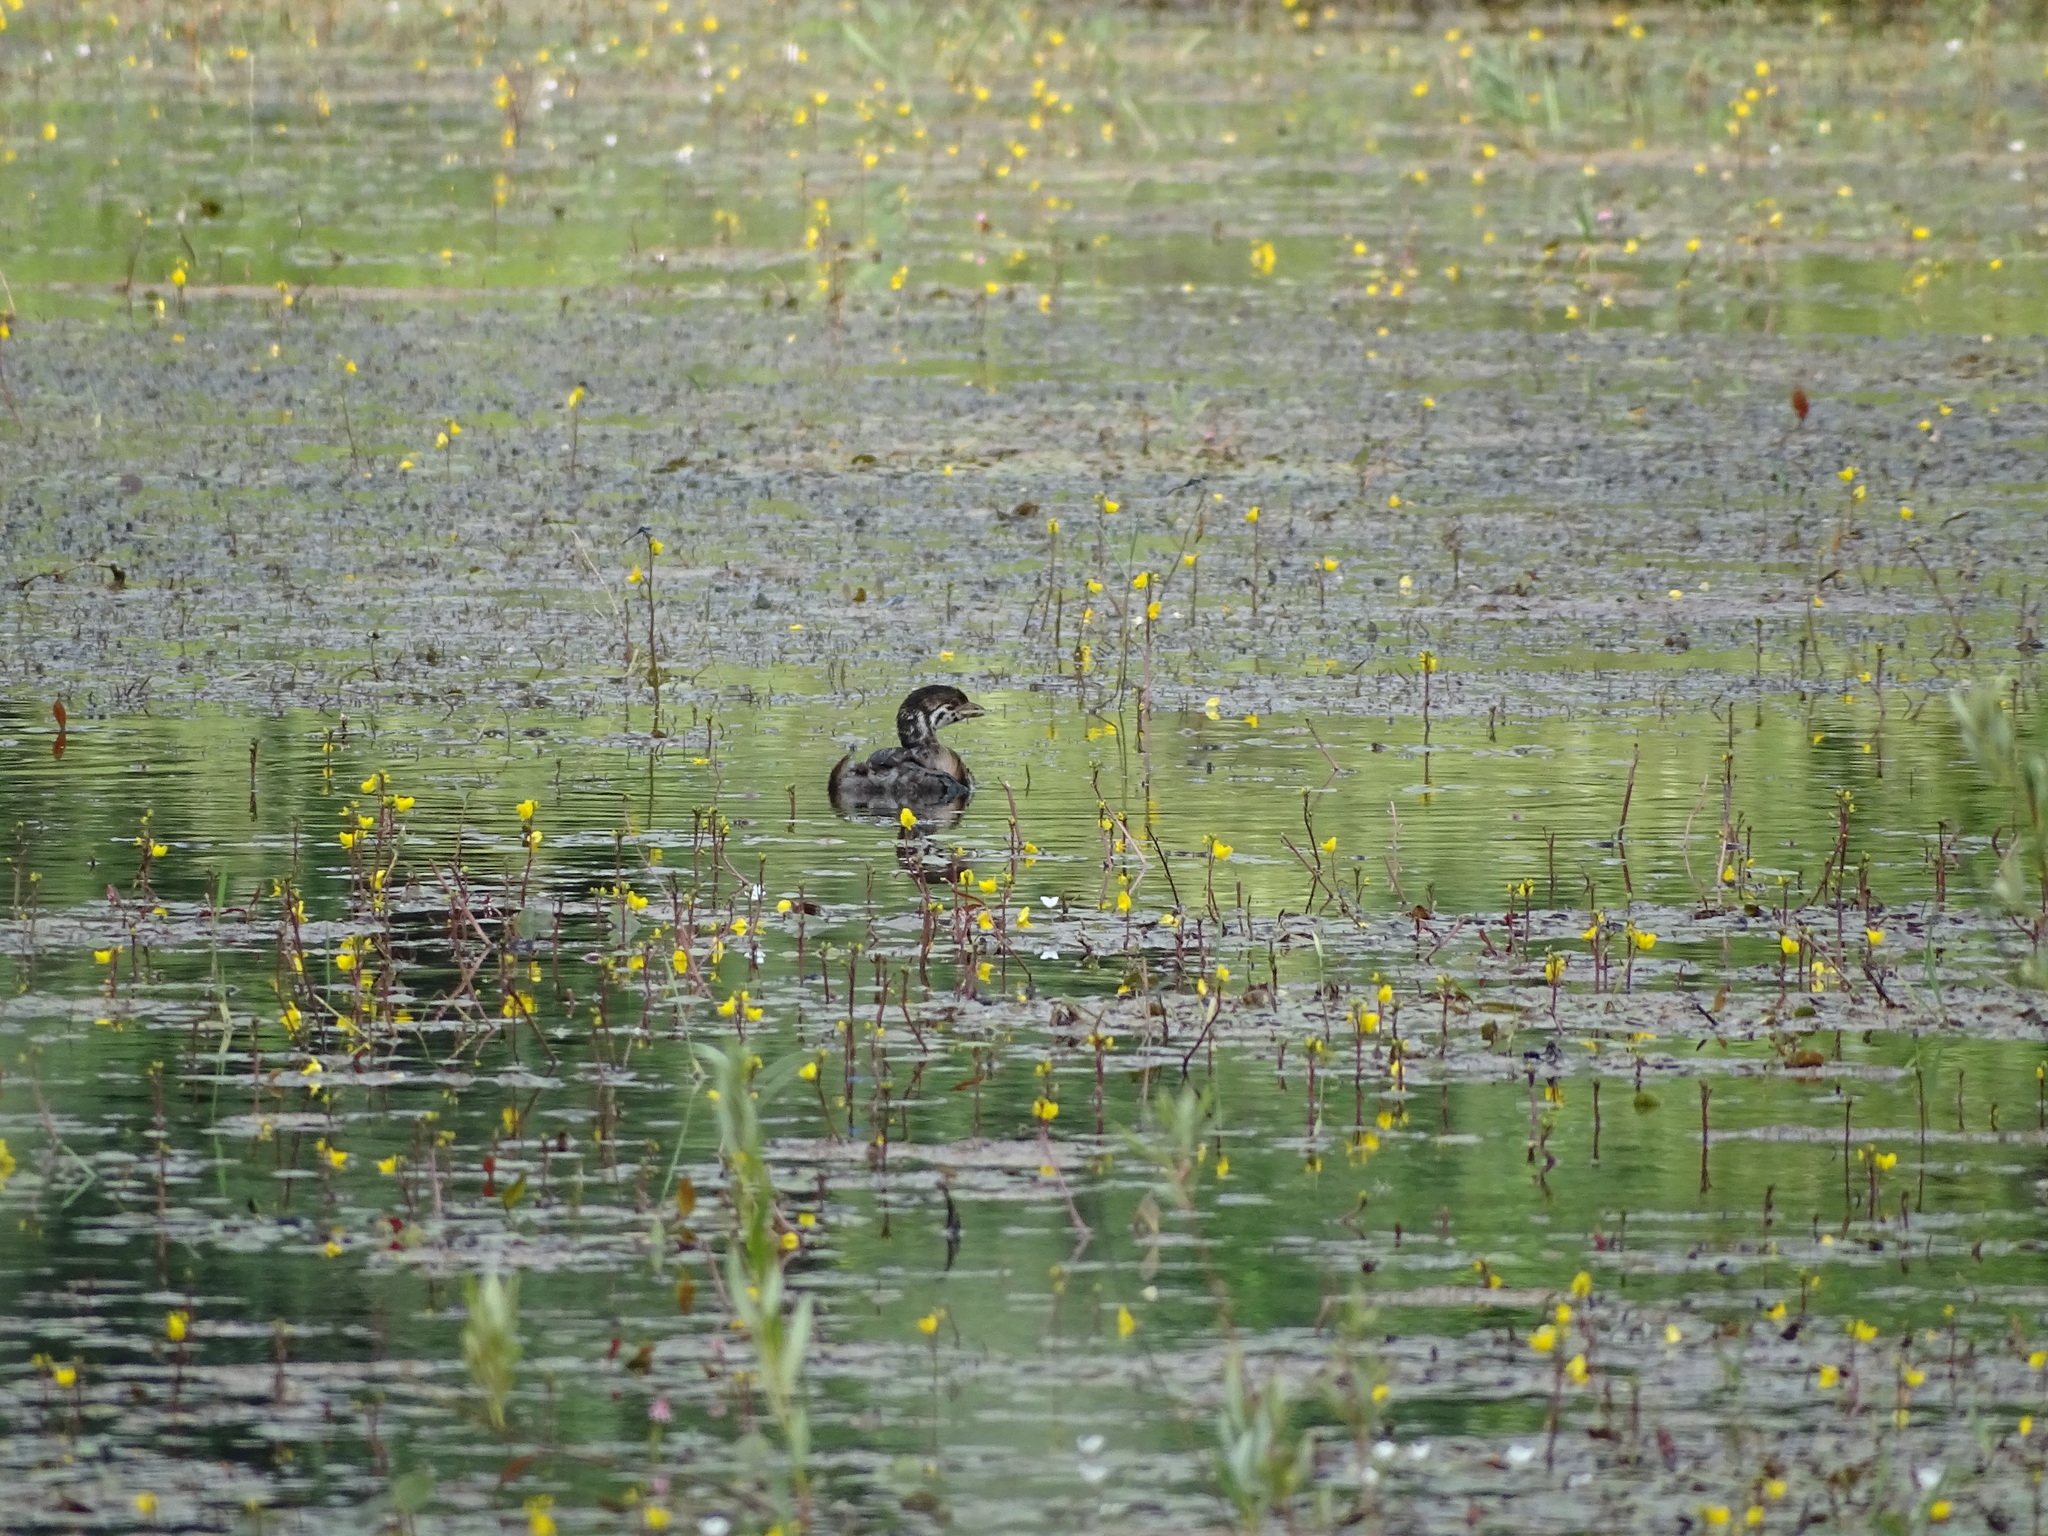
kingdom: Animalia
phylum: Chordata
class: Aves
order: Podicipediformes
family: Podicipedidae
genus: Podilymbus
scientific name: Podilymbus podiceps
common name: Pied-billed grebe
